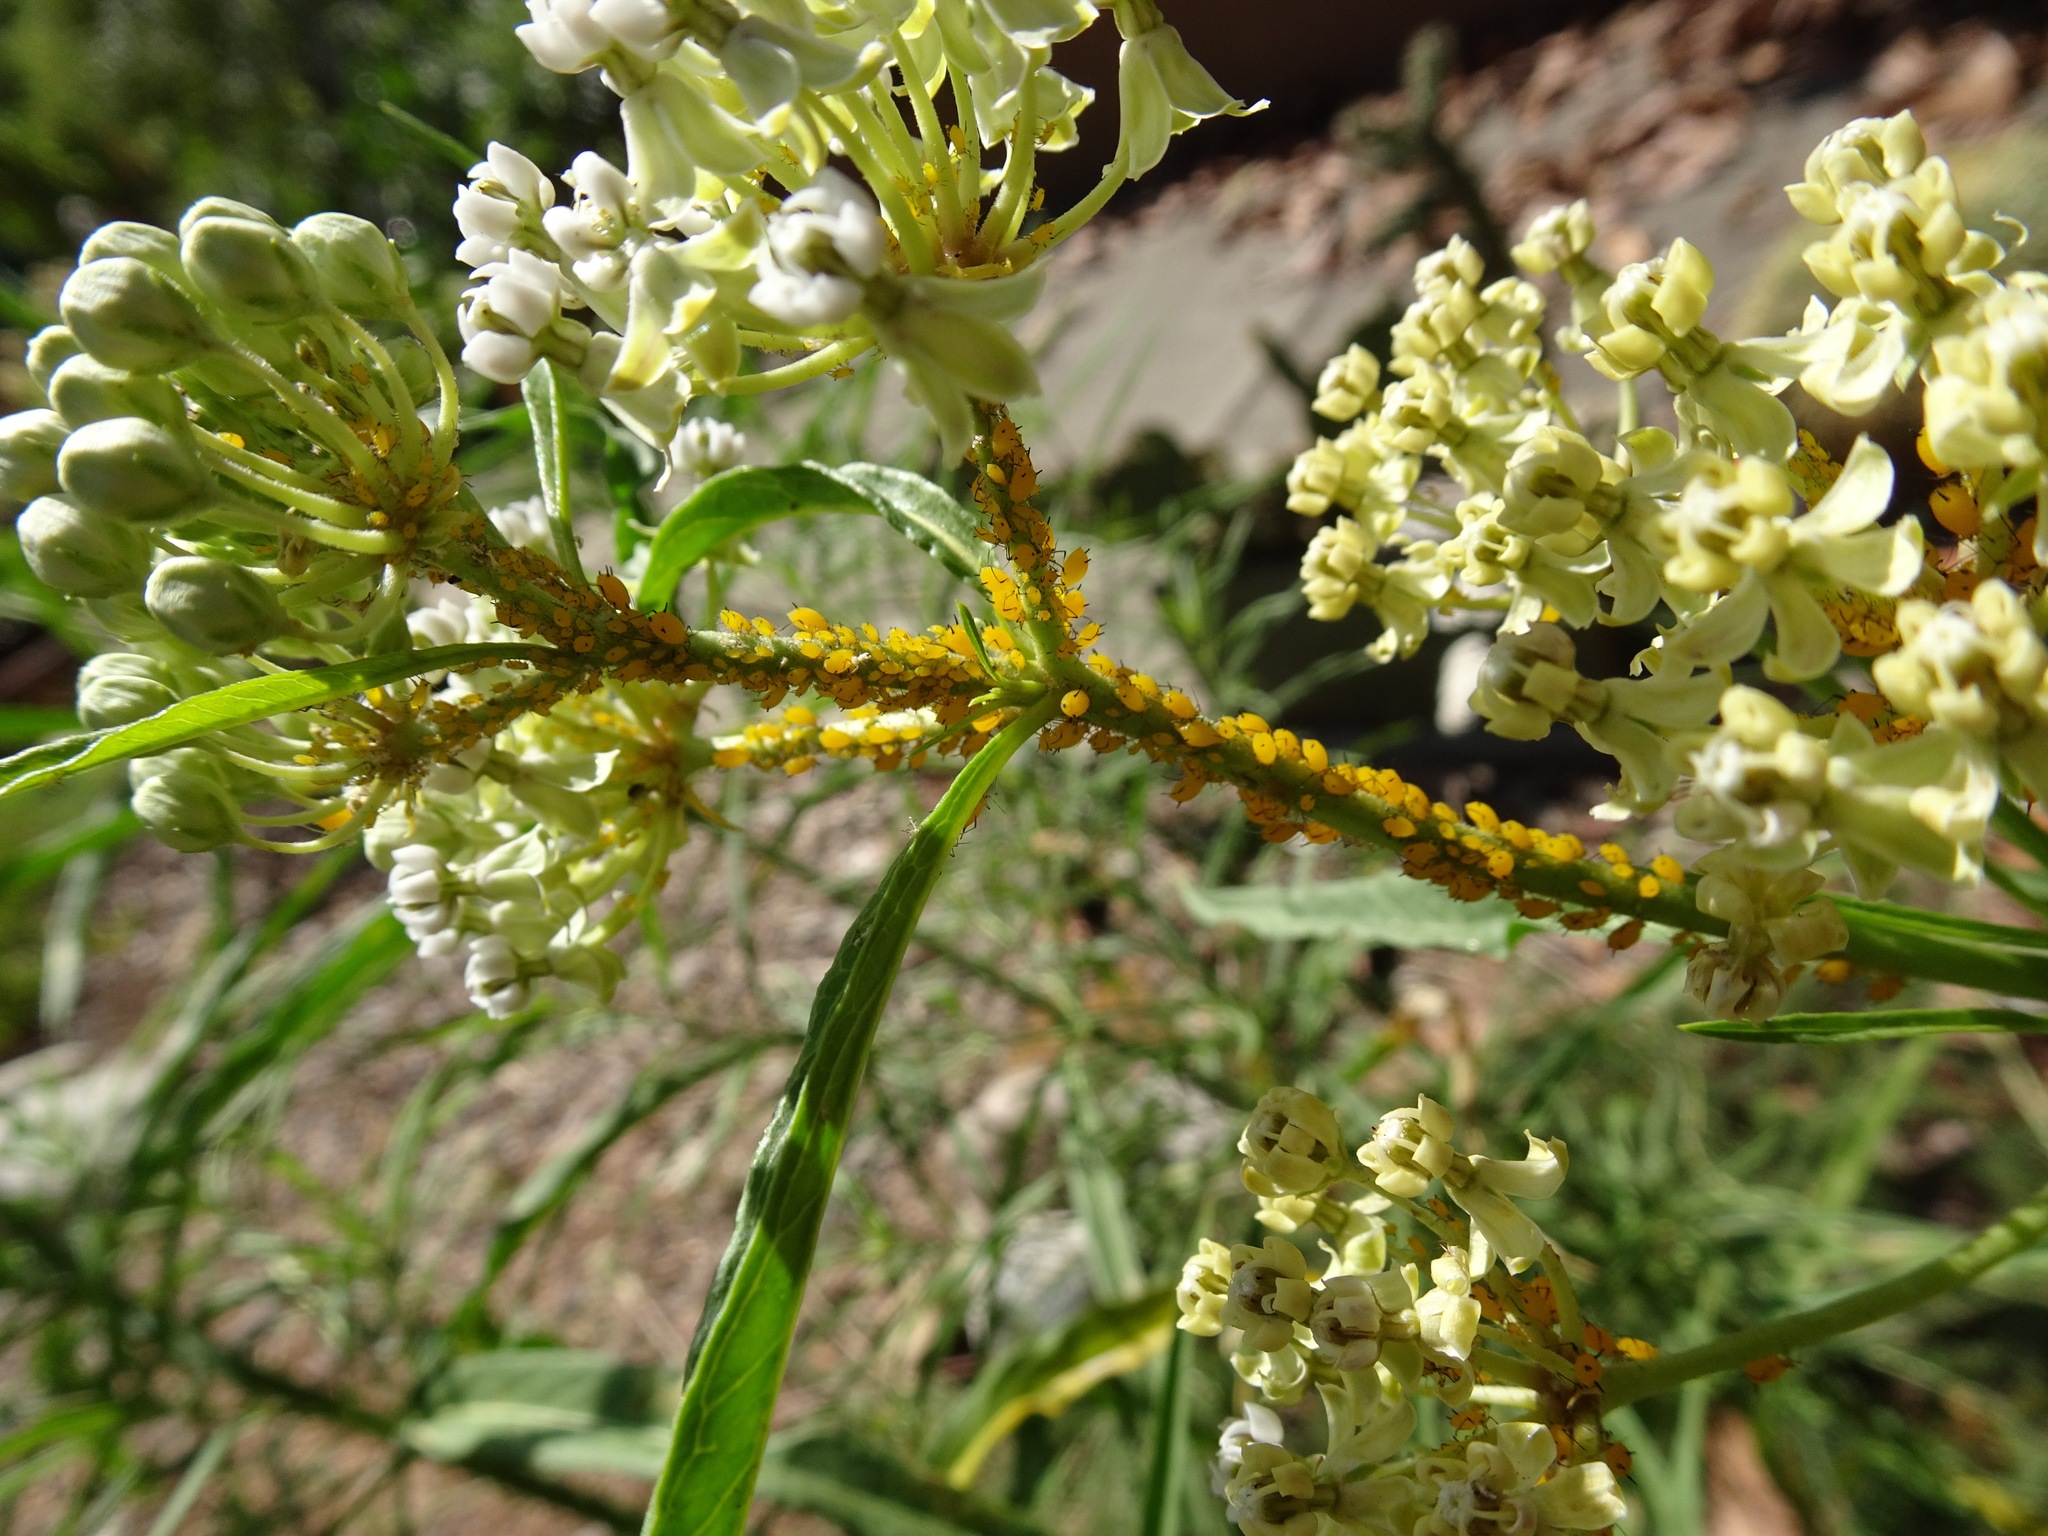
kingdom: Animalia
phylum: Arthropoda
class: Insecta
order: Hemiptera
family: Aphididae
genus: Aphis
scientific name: Aphis nerii
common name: Oleander aphid
